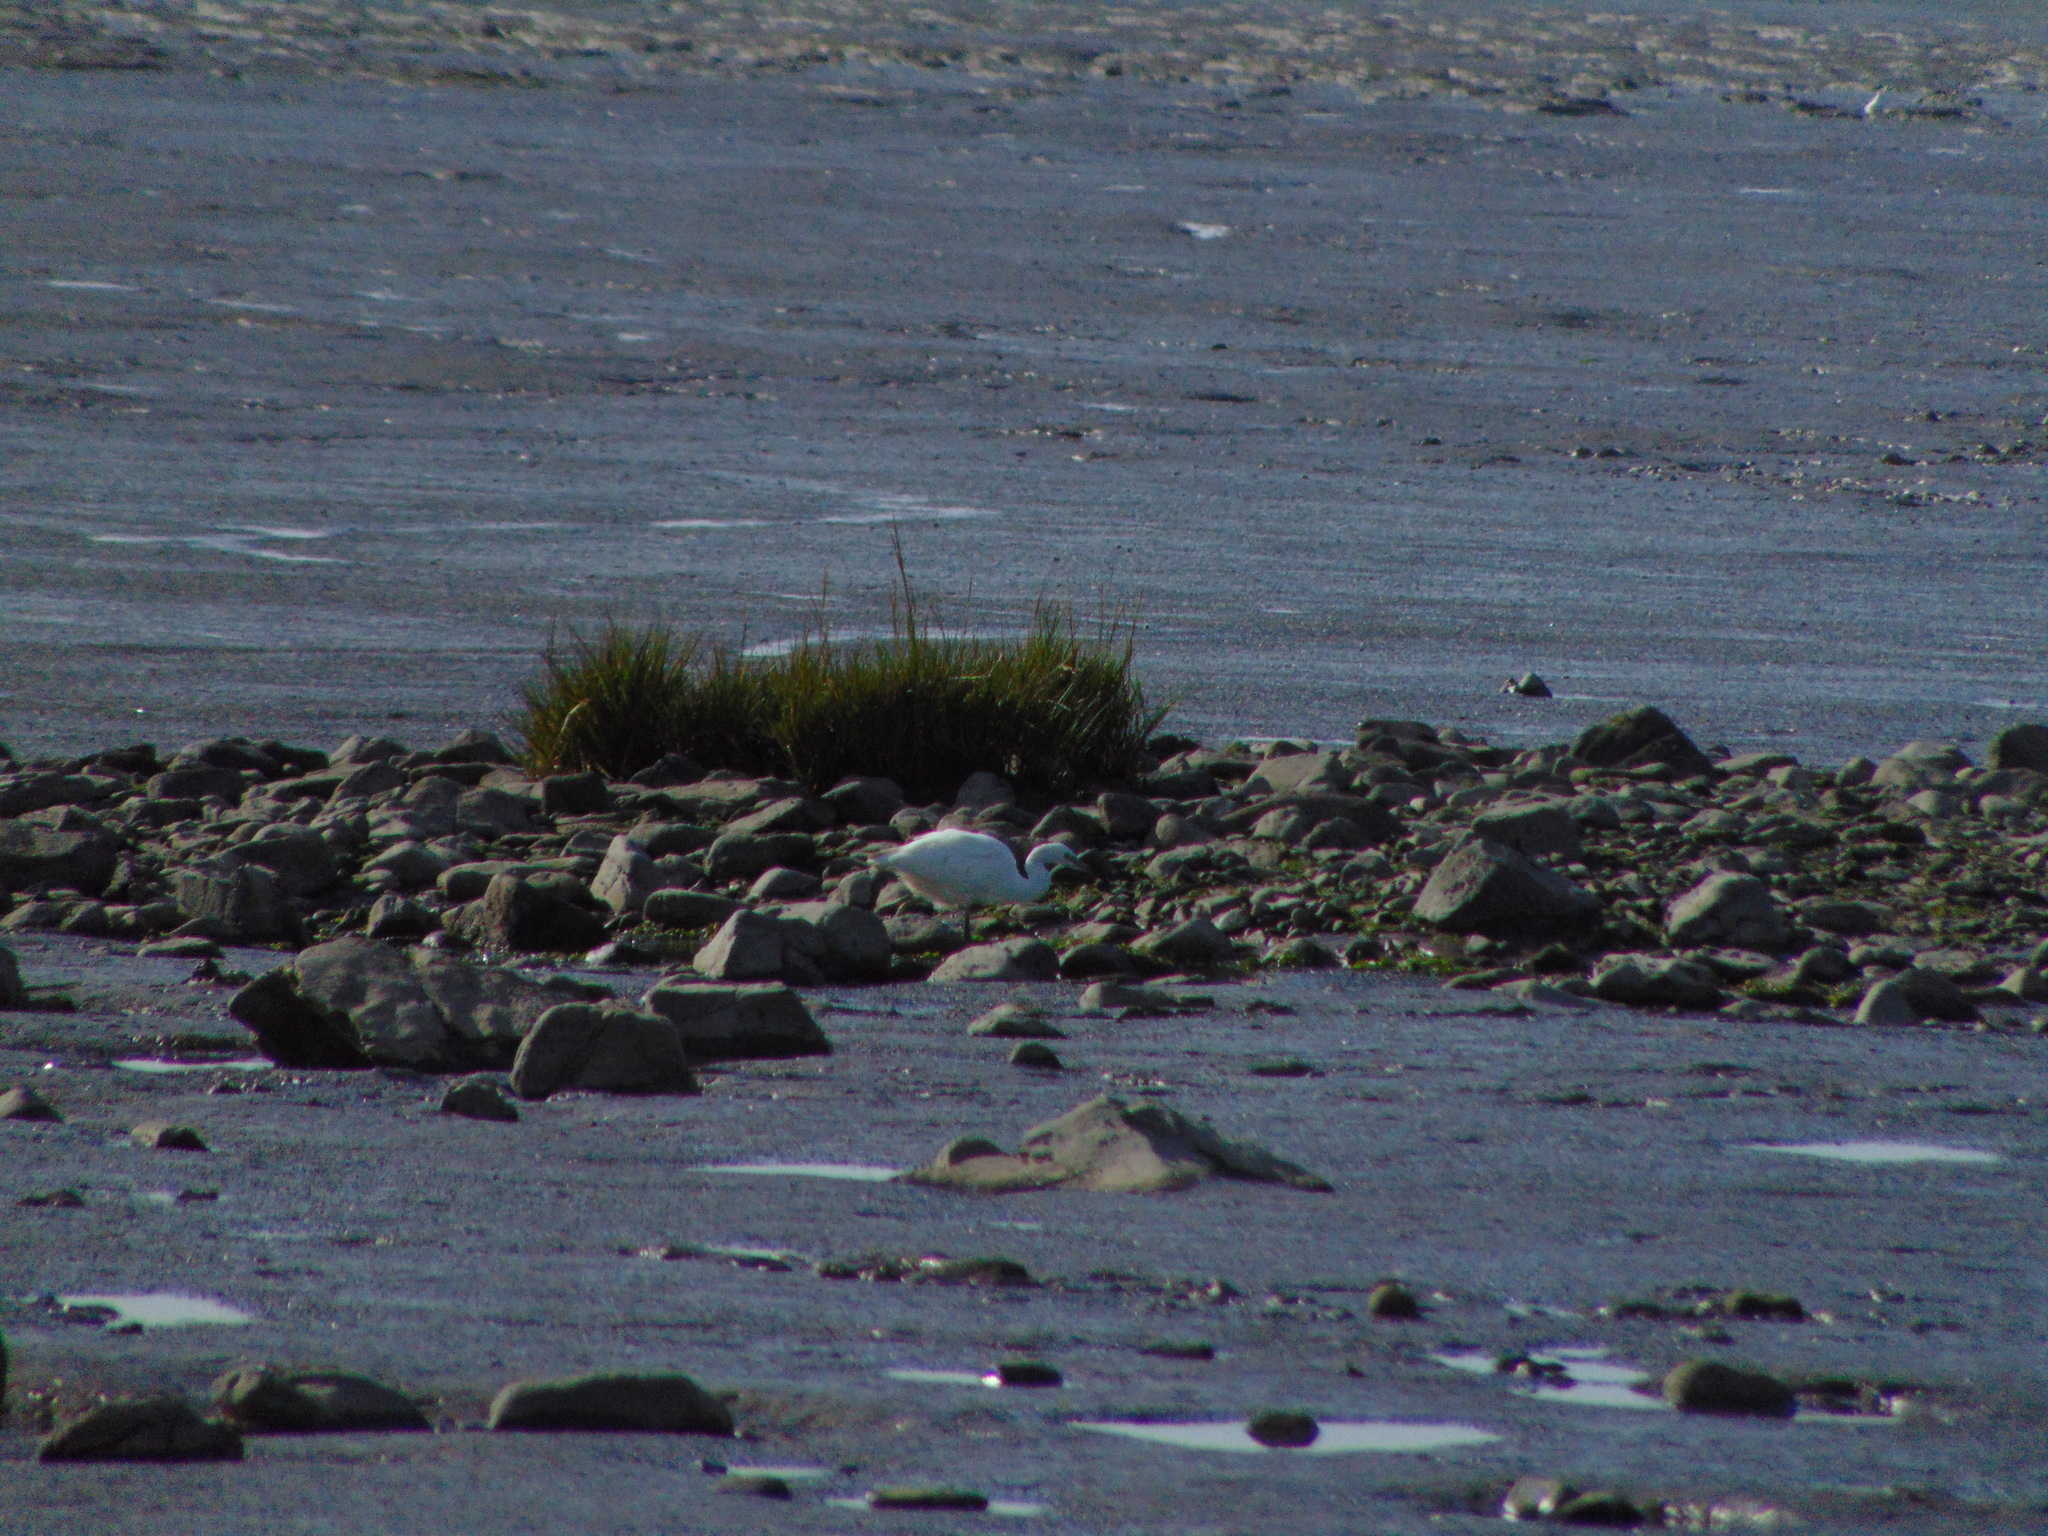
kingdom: Animalia
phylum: Chordata
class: Aves
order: Pelecaniformes
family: Ardeidae
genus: Egretta
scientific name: Egretta garzetta
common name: Little egret
